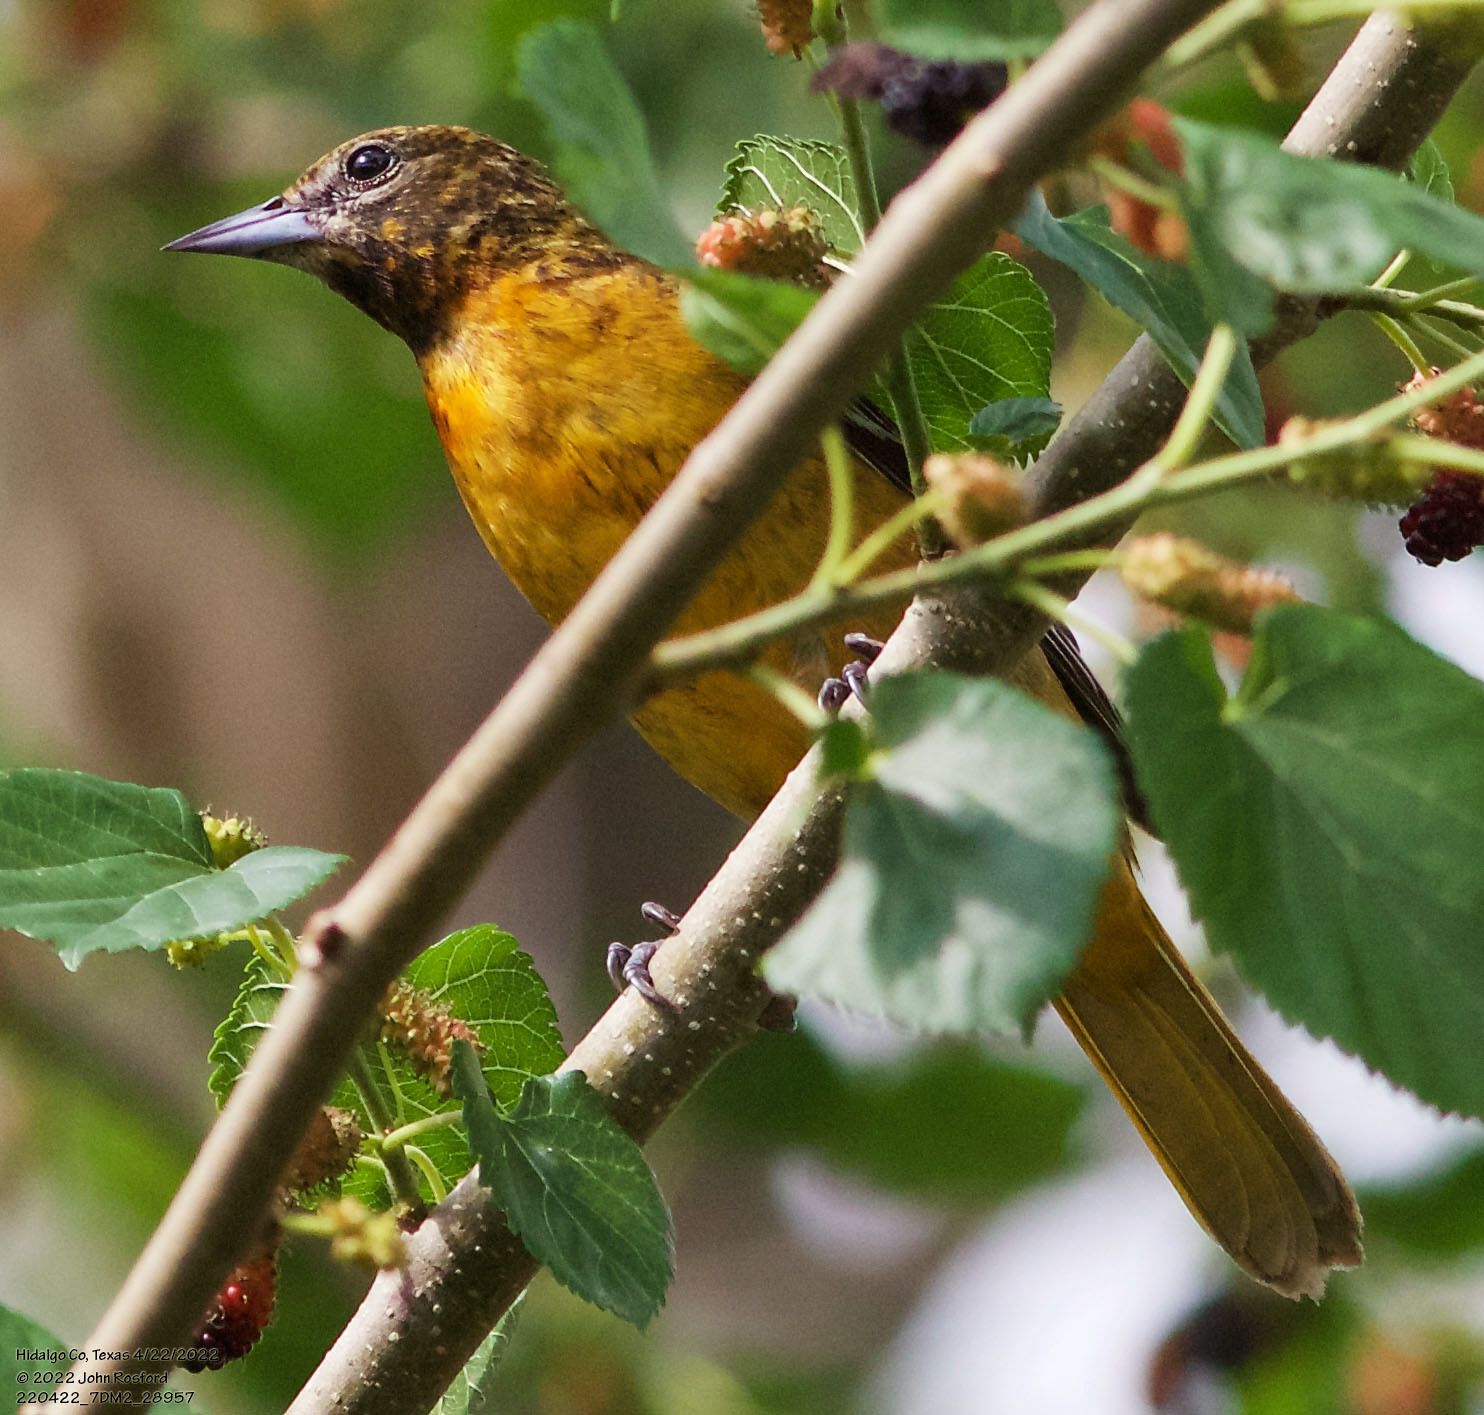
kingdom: Animalia
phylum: Chordata
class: Aves
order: Passeriformes
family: Icteridae
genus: Icterus
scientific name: Icterus galbula
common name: Baltimore oriole
